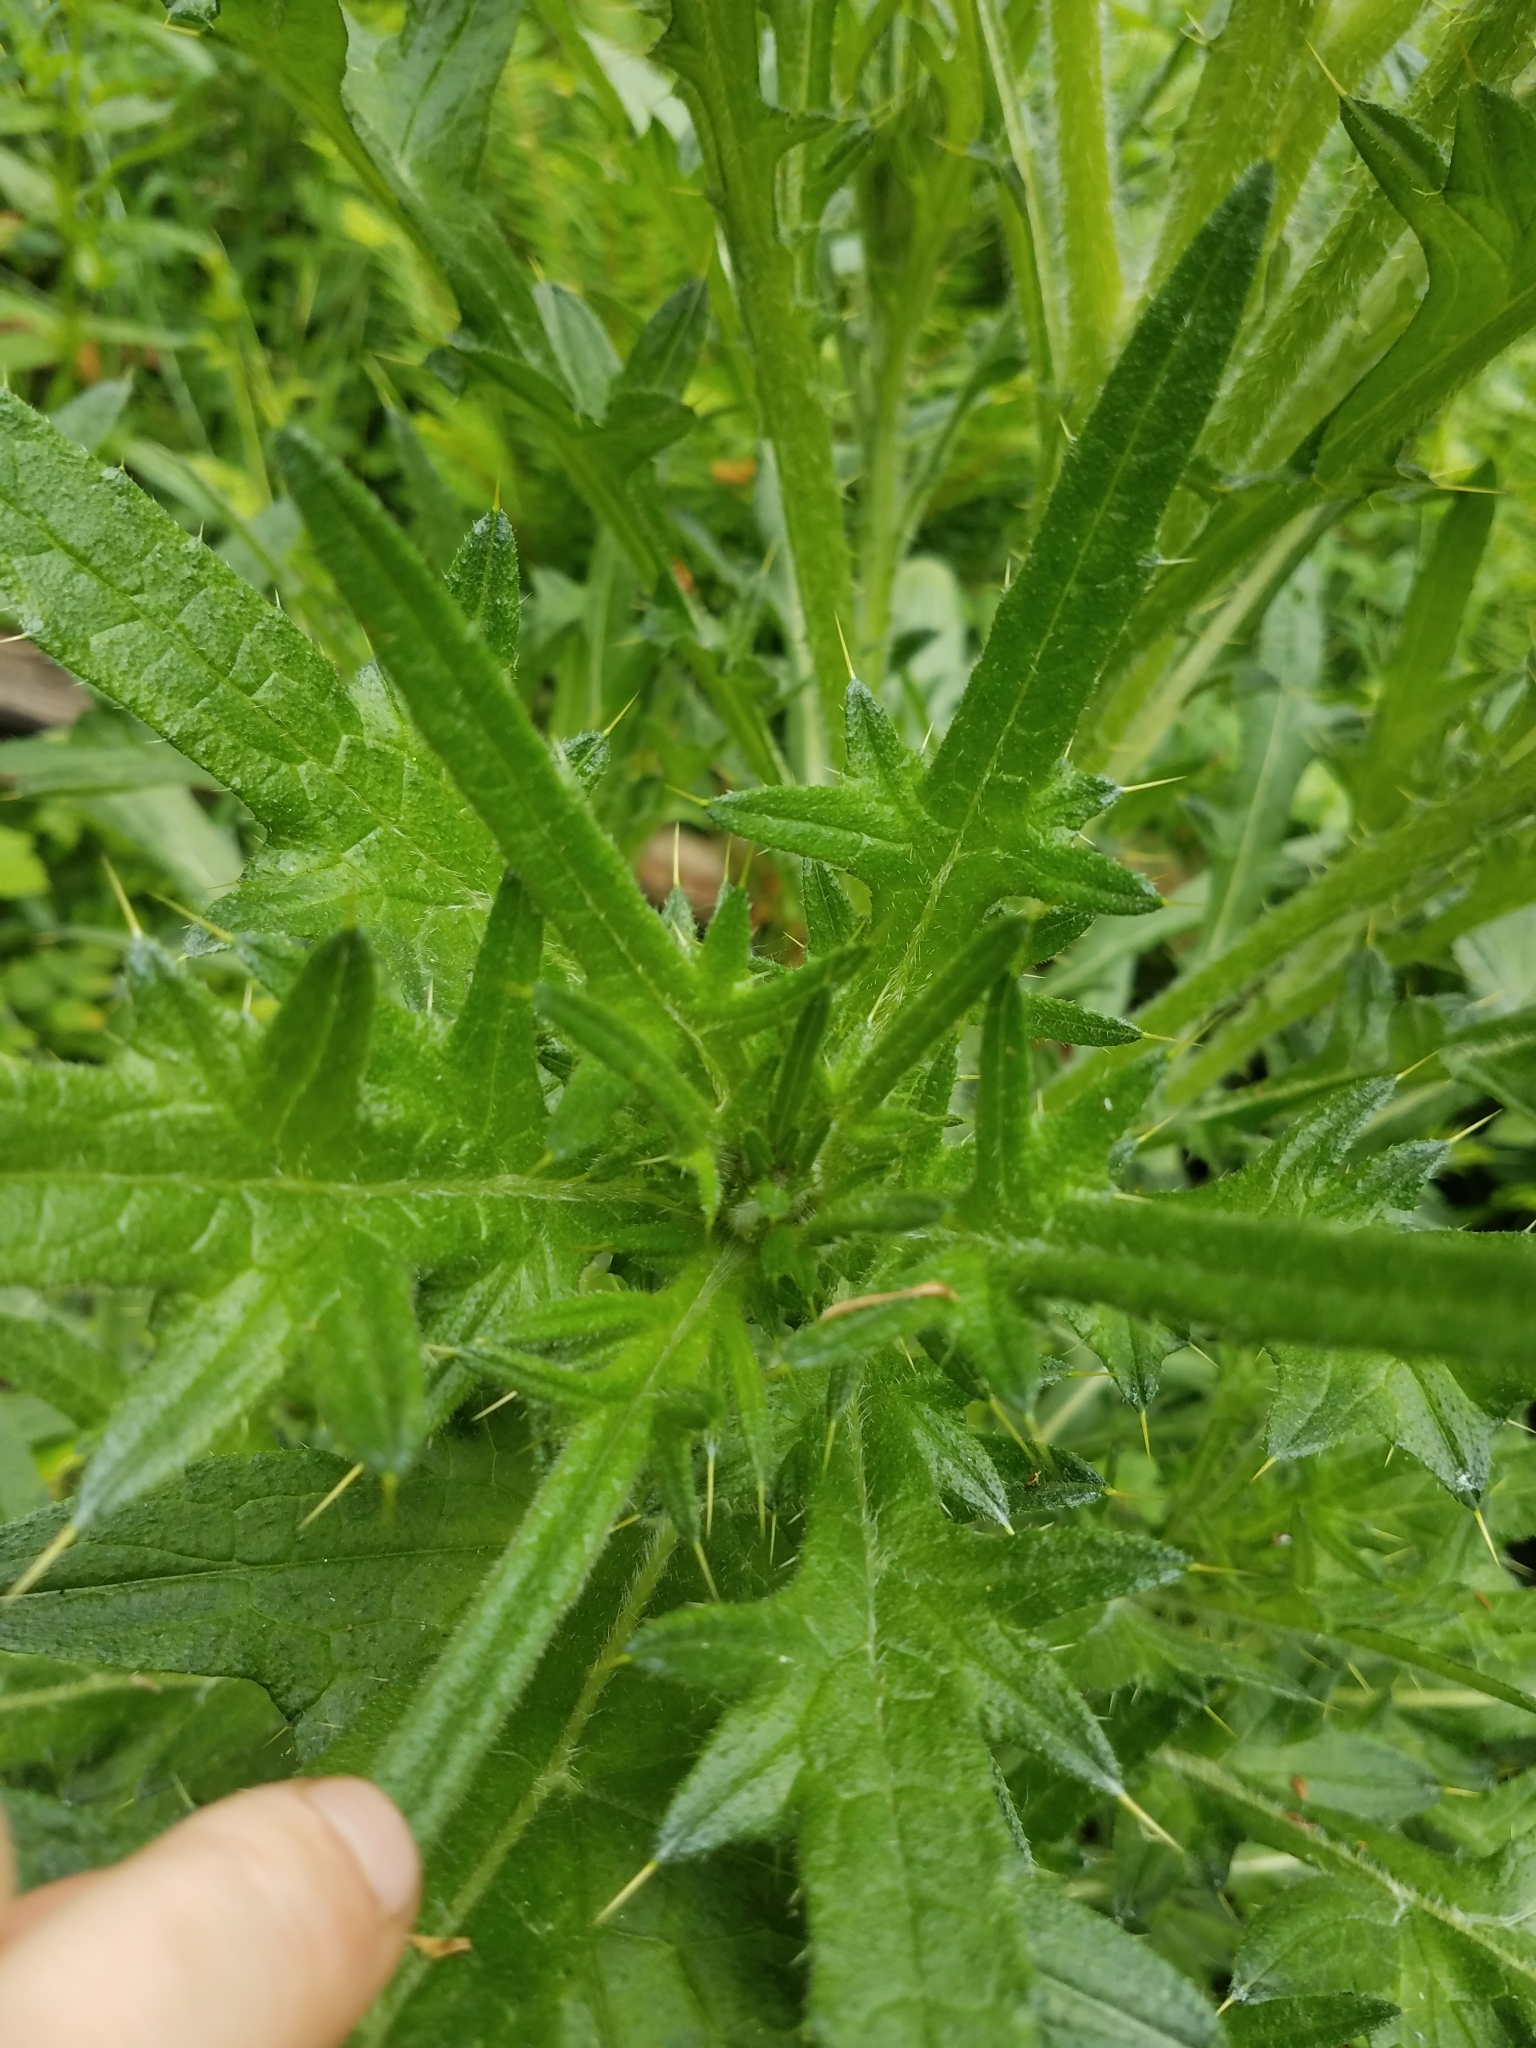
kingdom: Plantae
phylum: Tracheophyta
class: Magnoliopsida
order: Asterales
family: Asteraceae
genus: Cirsium
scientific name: Cirsium vulgare
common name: Bull thistle
